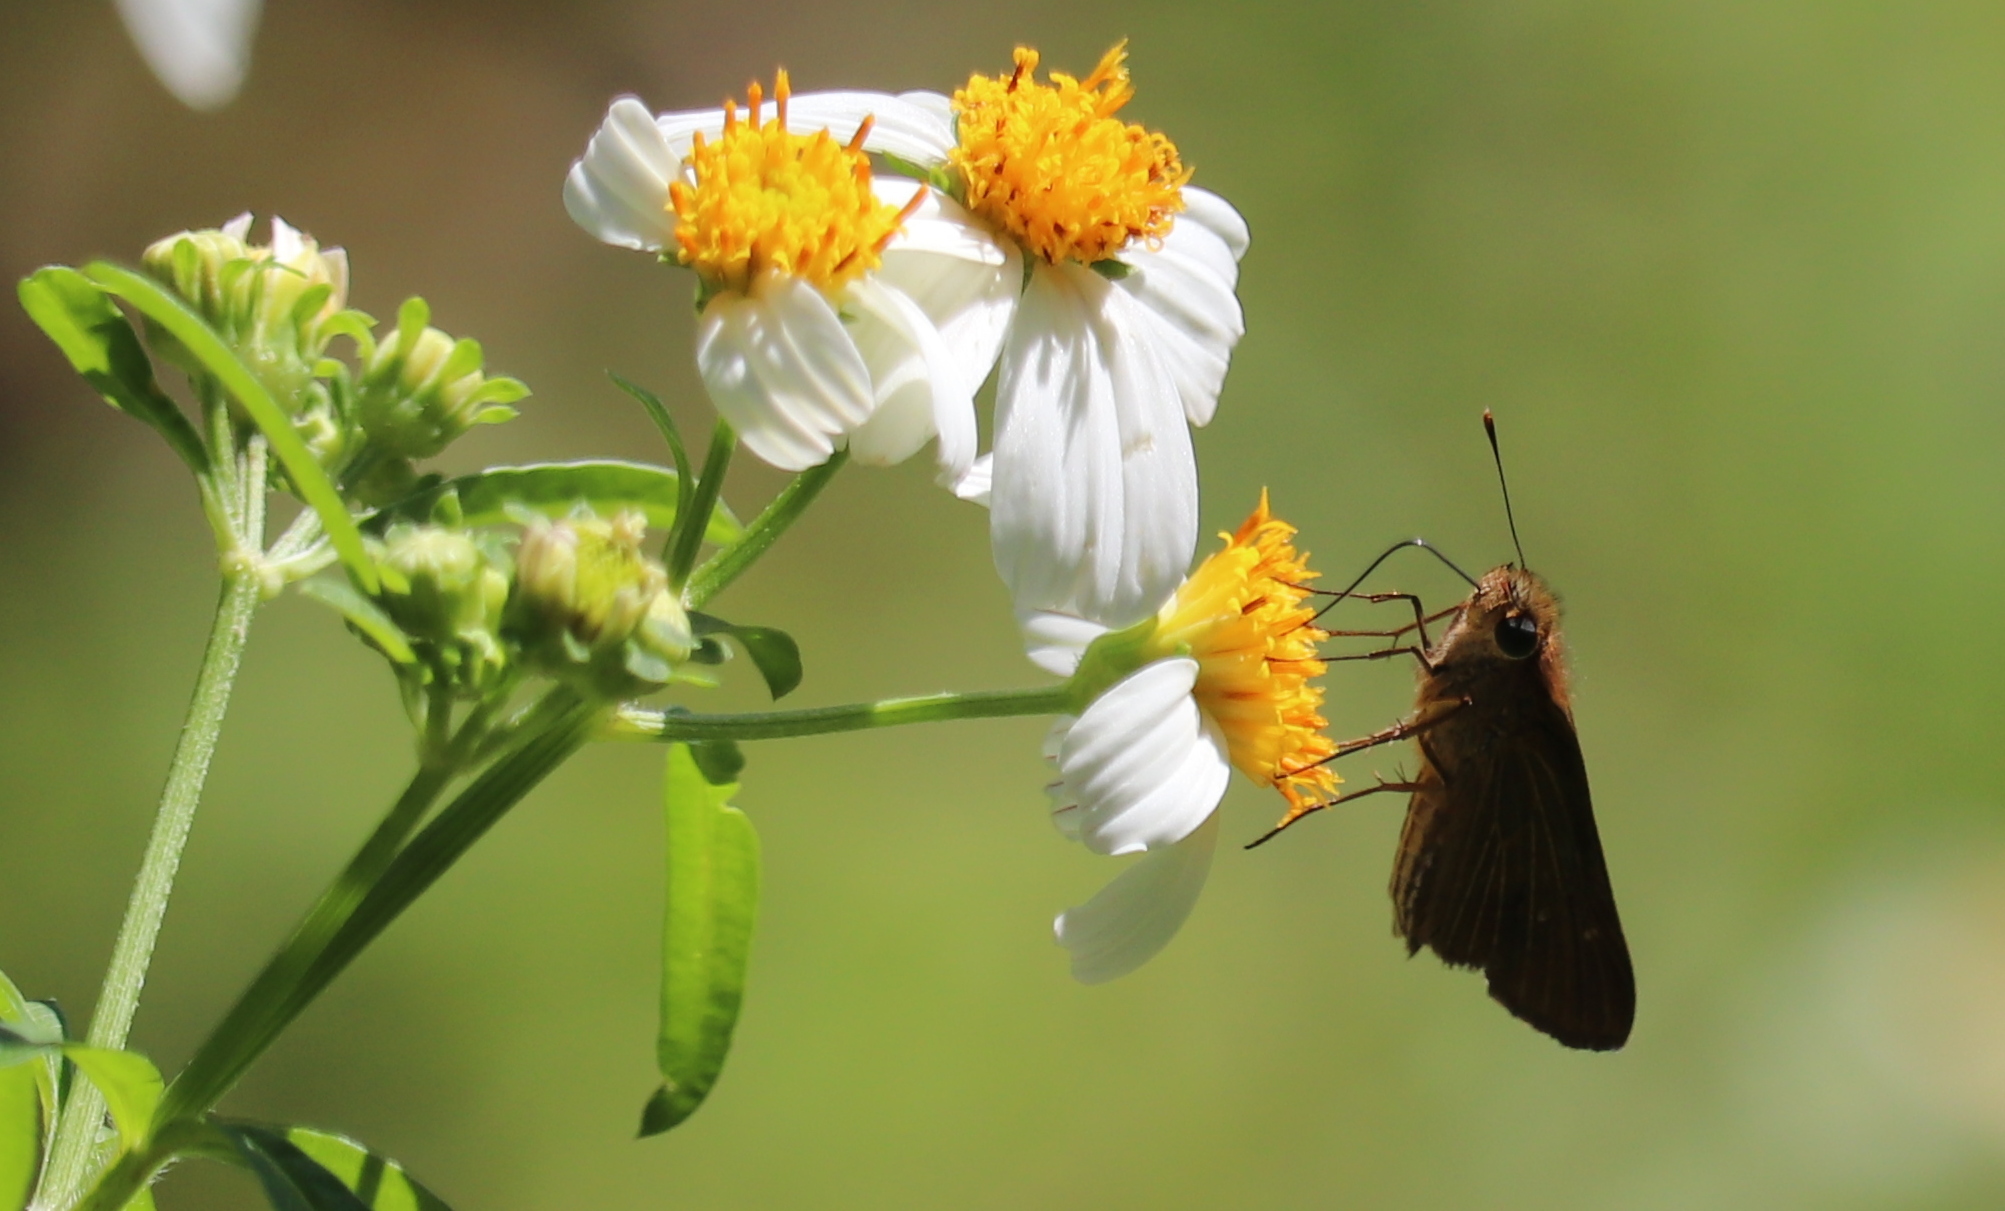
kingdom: Animalia
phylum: Arthropoda
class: Insecta
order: Lepidoptera
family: Hesperiidae
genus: Panoquina
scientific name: Panoquina ocola
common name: Ocola skipper
